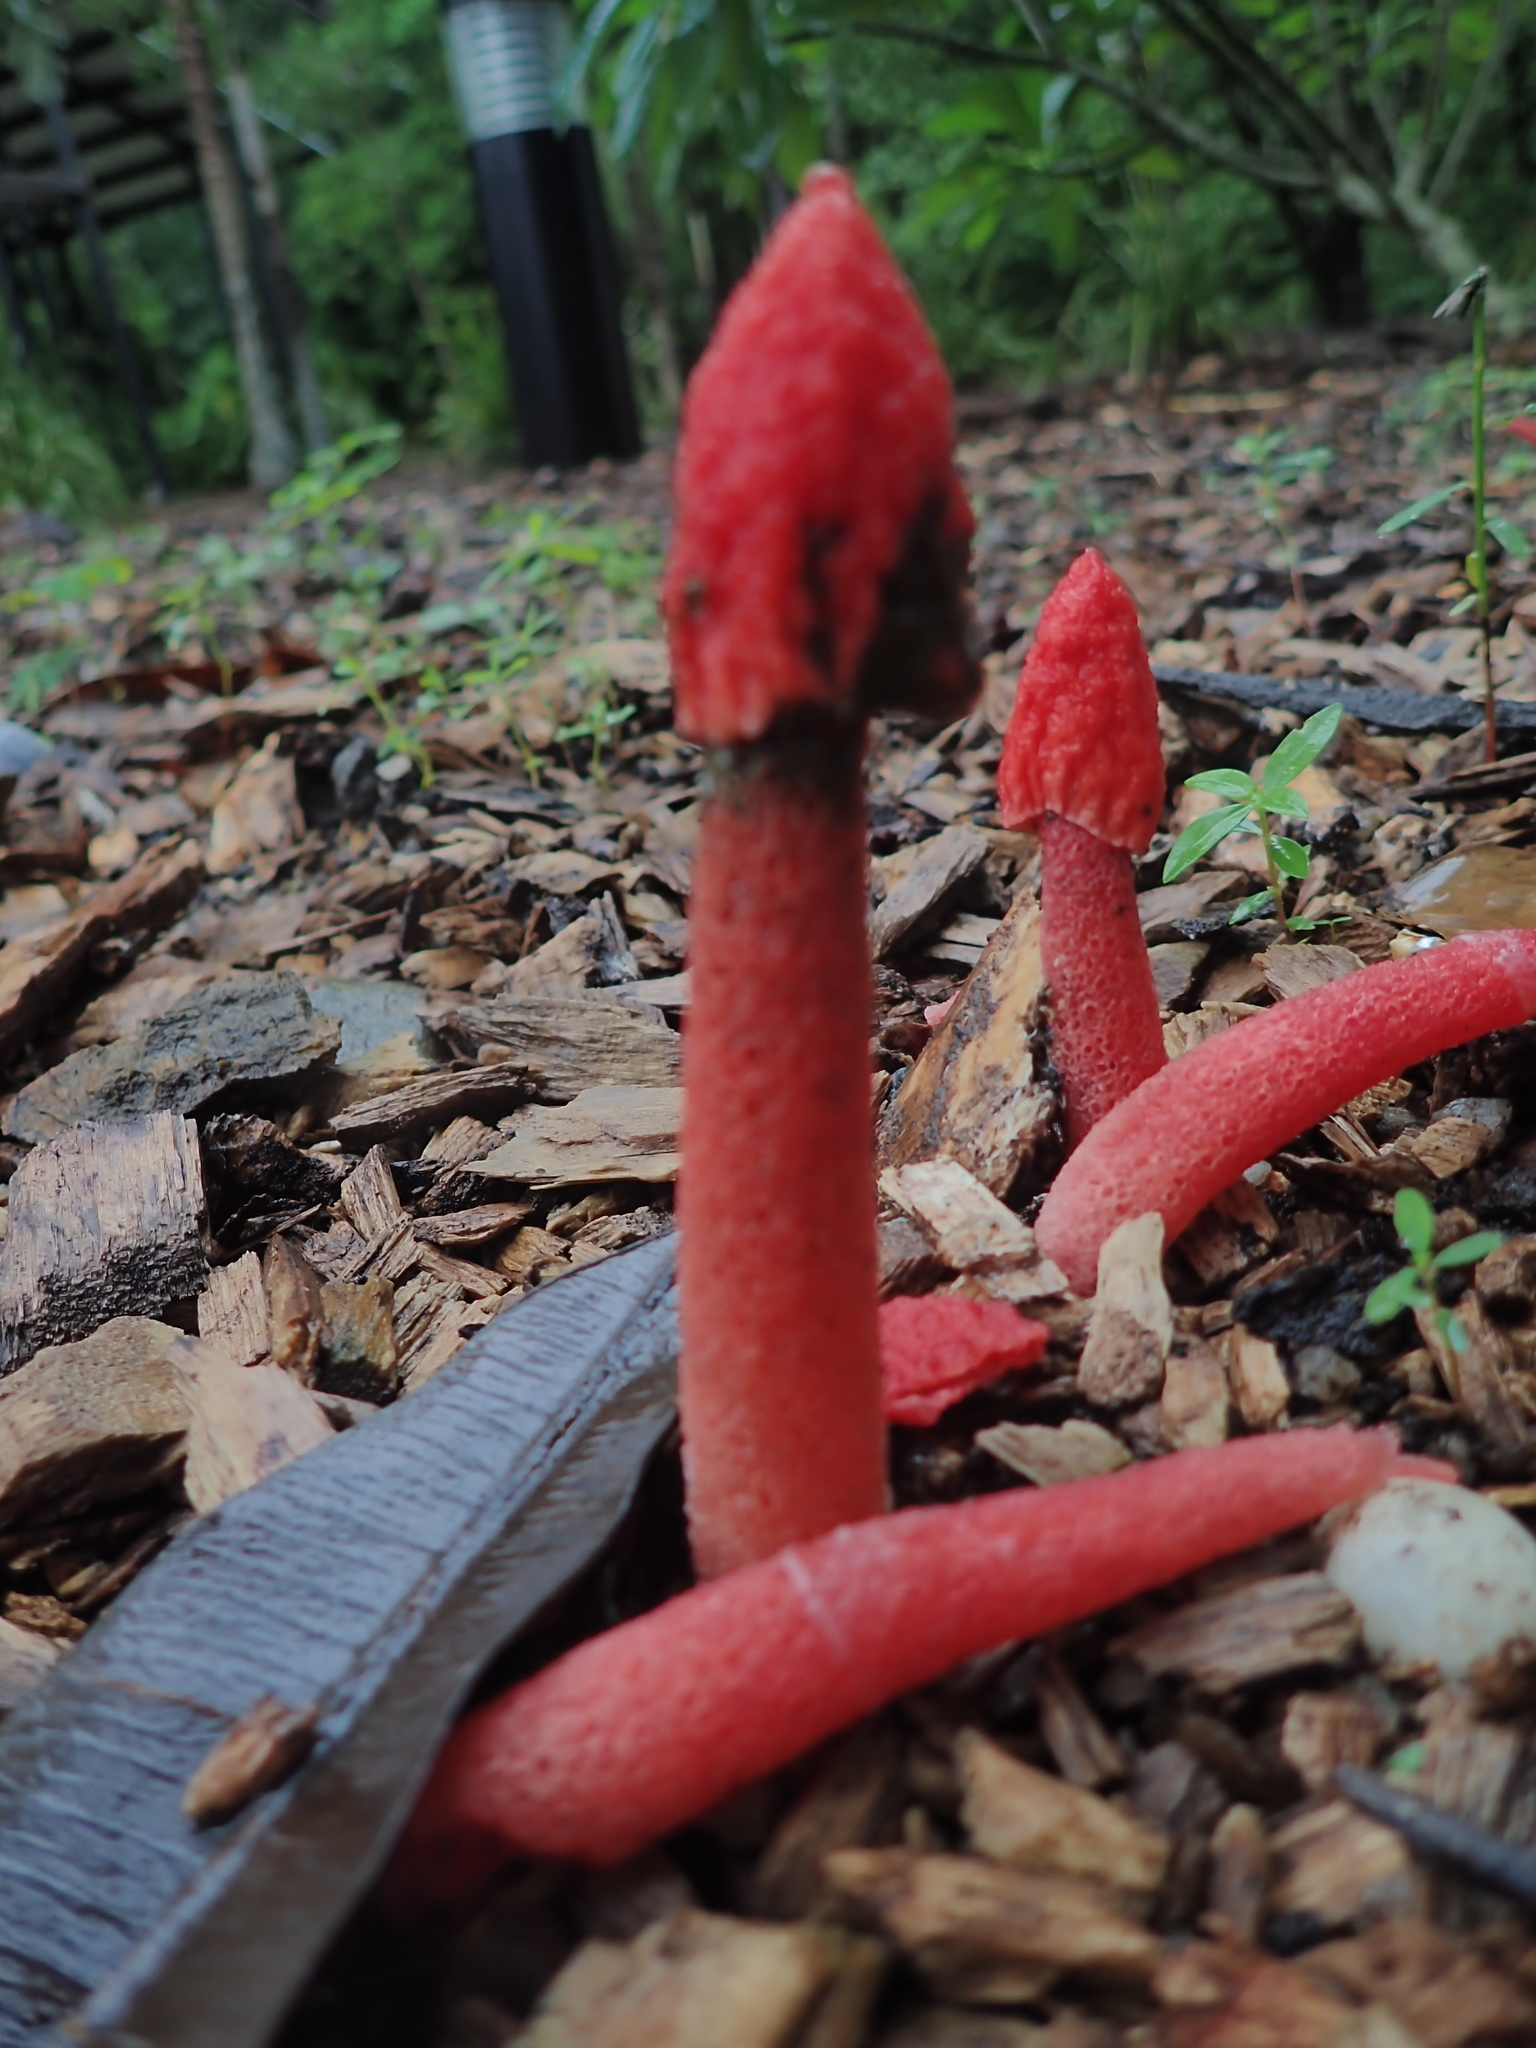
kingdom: Fungi
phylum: Basidiomycota
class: Agaricomycetes
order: Phallales
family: Phallaceae
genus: Phallus
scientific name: Phallus rubicundus
